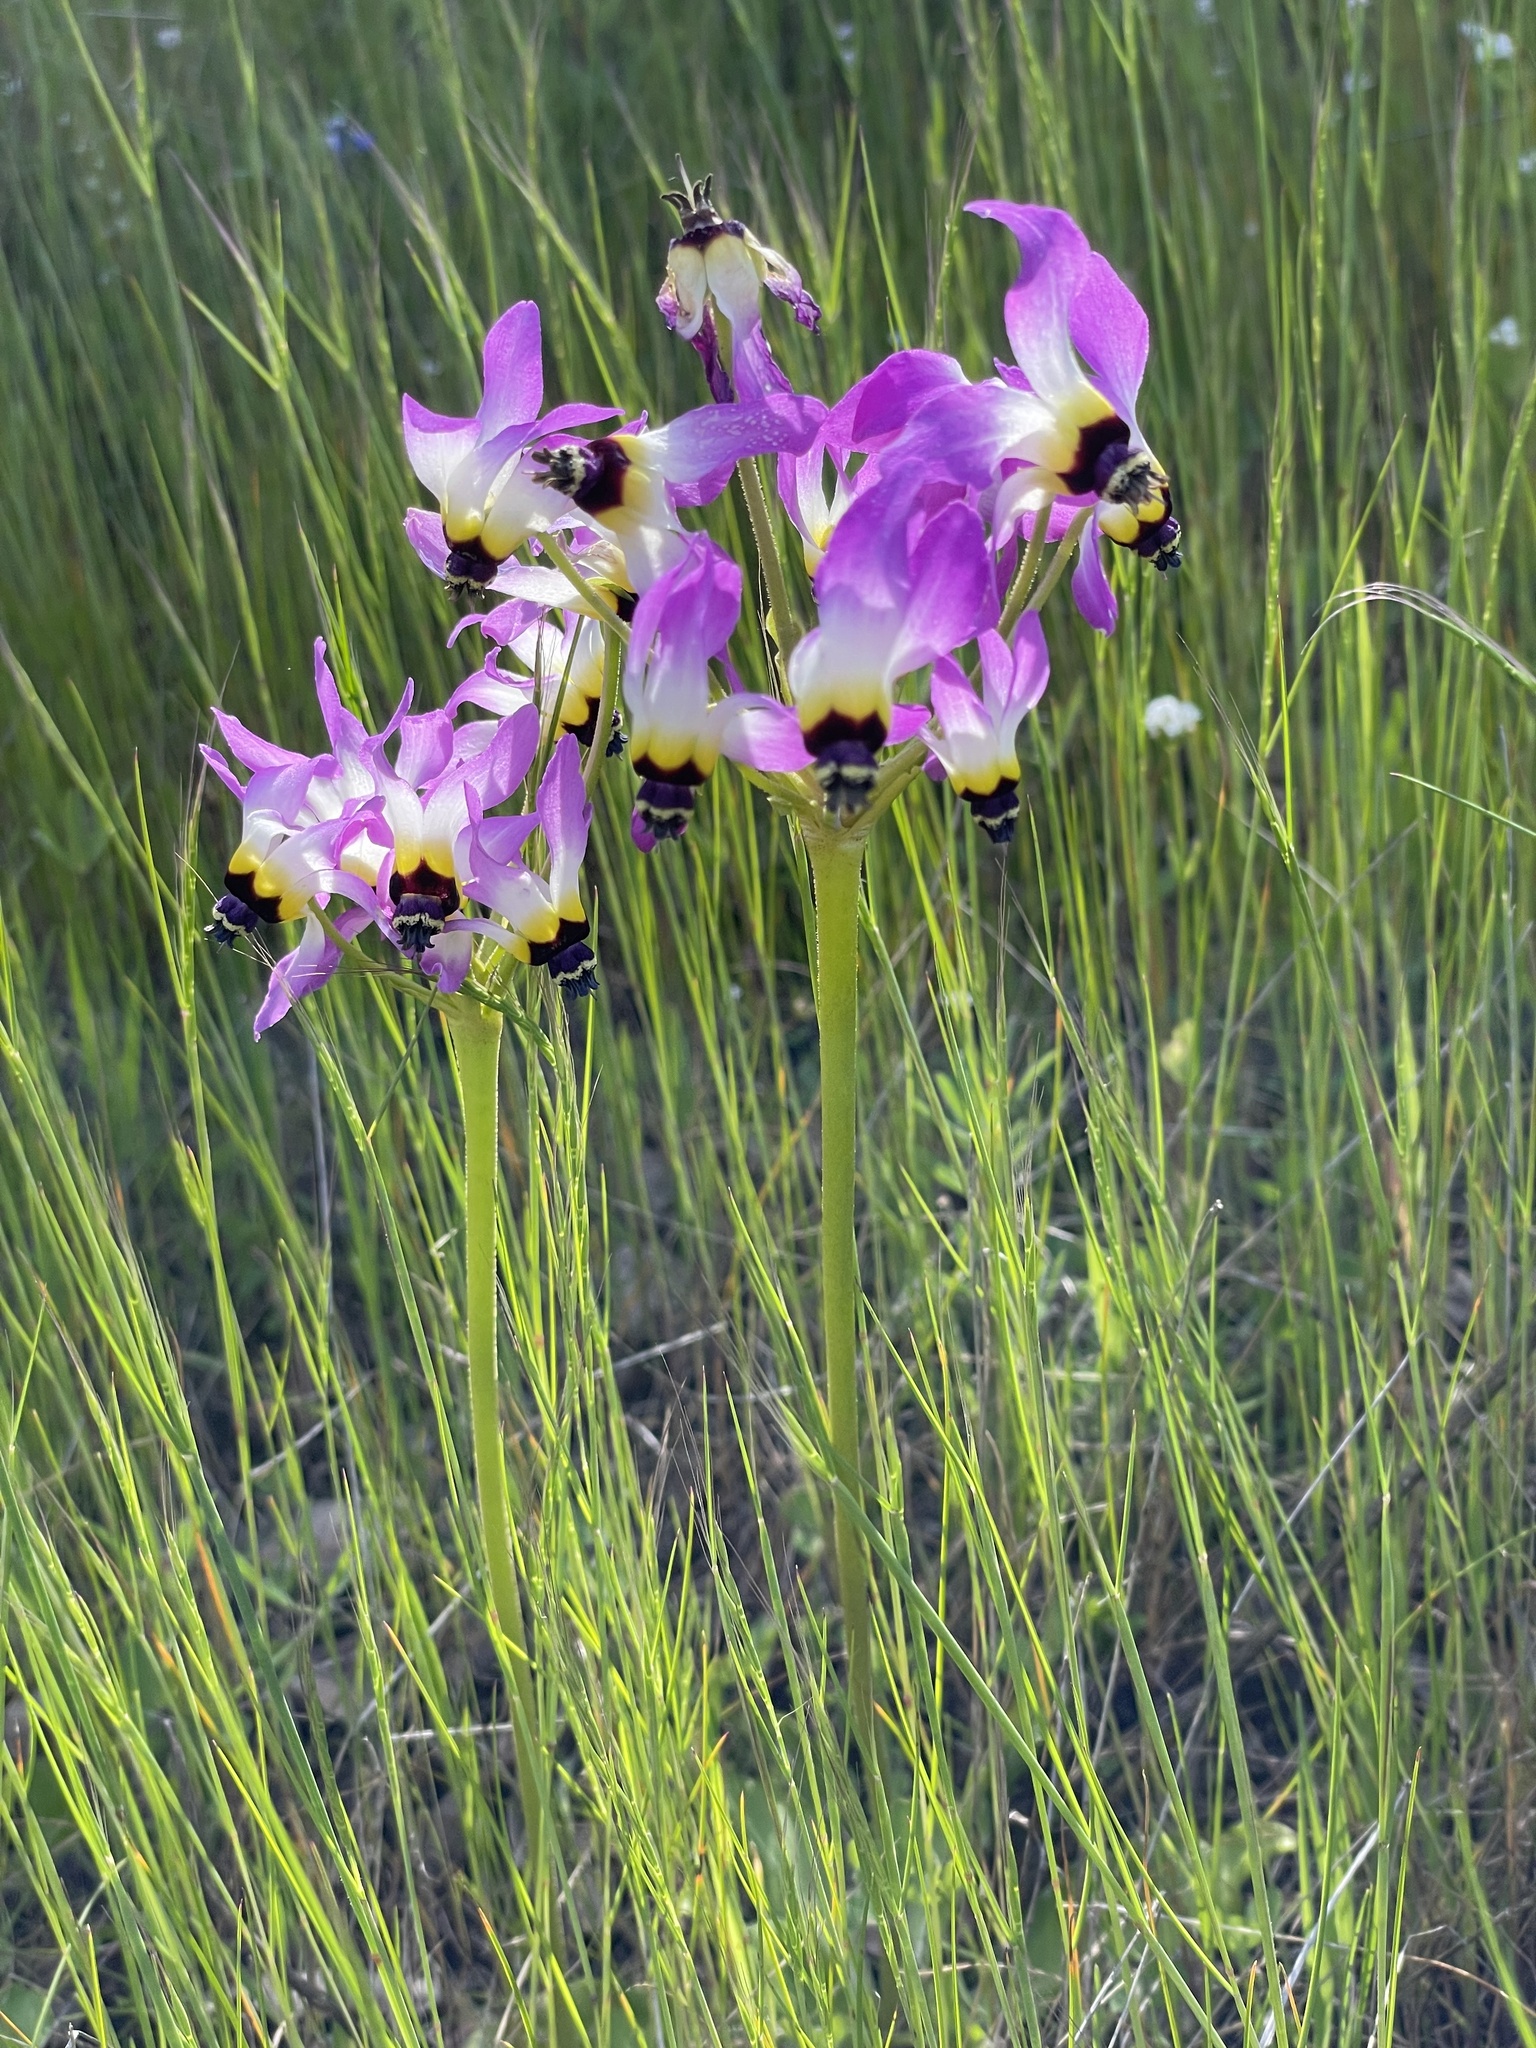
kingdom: Plantae
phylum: Tracheophyta
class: Magnoliopsida
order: Ericales
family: Primulaceae
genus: Dodecatheon
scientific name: Dodecatheon clevelandii
